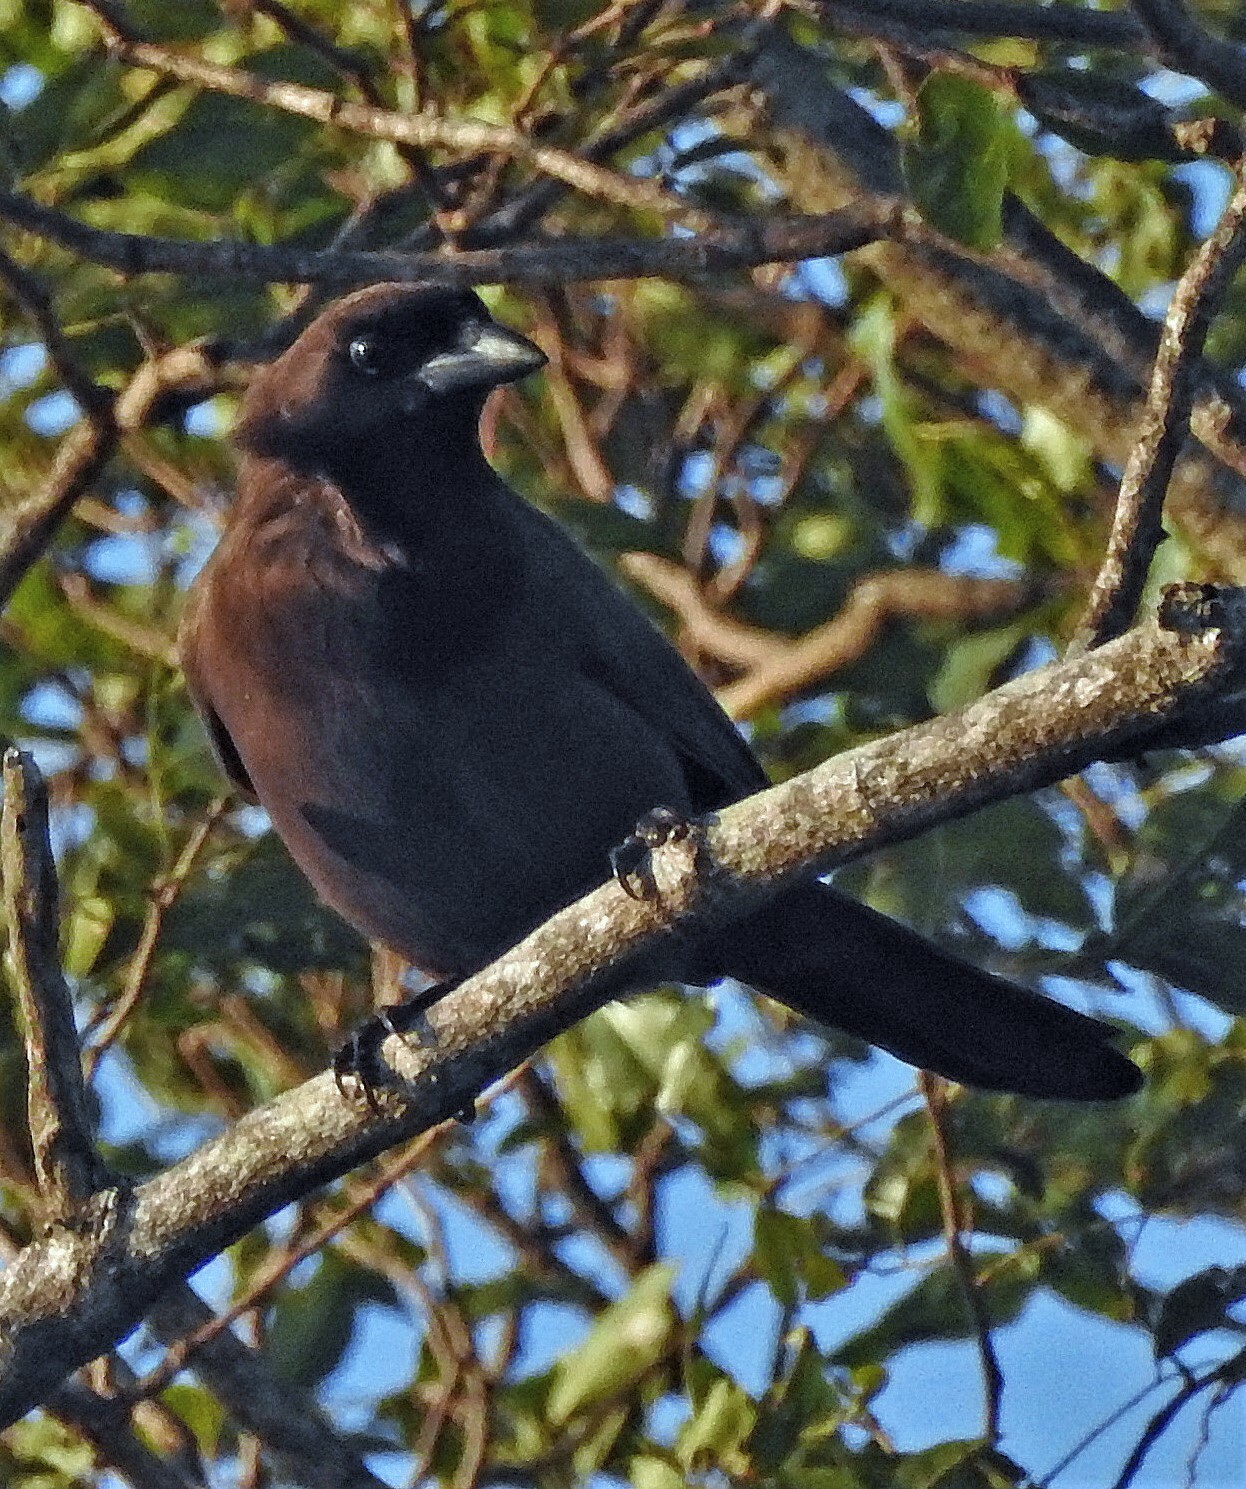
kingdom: Animalia
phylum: Chordata
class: Aves
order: Passeriformes
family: Corvidae
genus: Cyanocorax
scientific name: Cyanocorax cyanomelas
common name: Purplish jay
